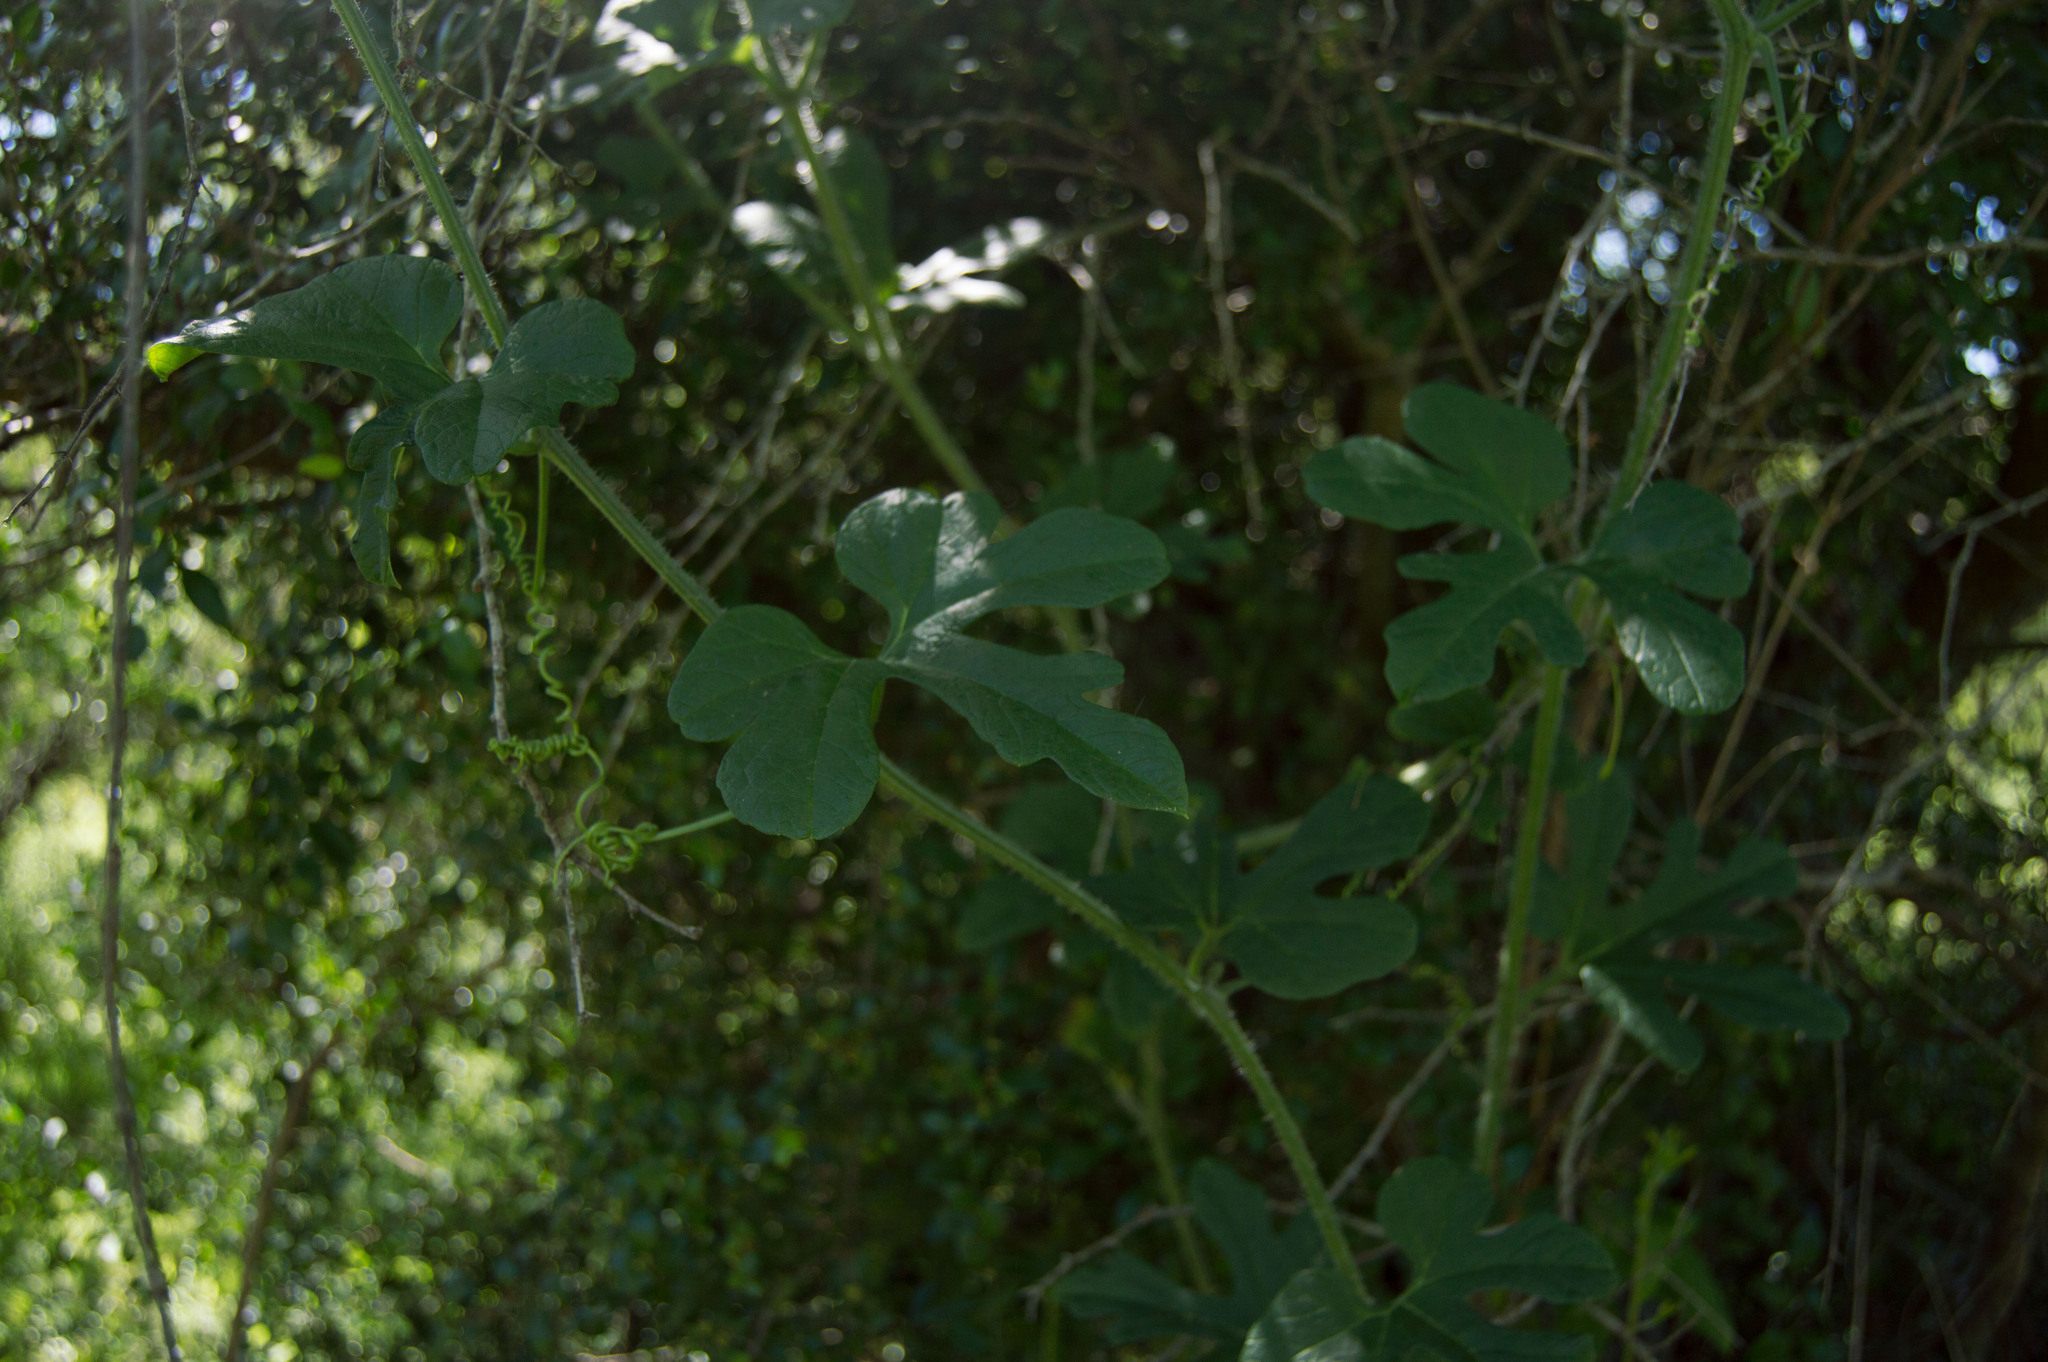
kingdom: Plantae
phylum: Tracheophyta
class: Magnoliopsida
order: Cucurbitales
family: Cucurbitaceae
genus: Cayaponia
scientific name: Cayaponia bonariensis
